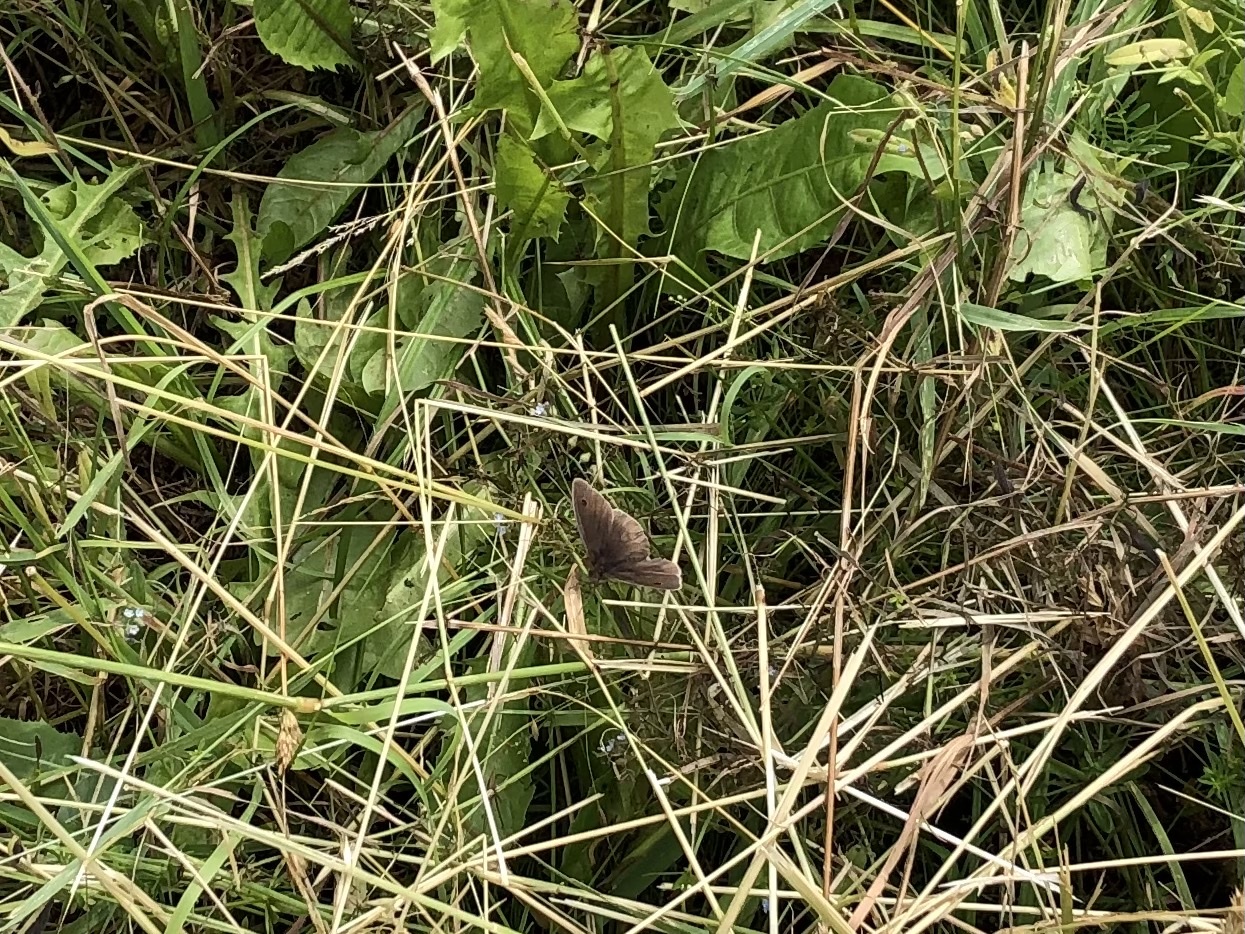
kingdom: Animalia
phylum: Arthropoda
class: Insecta
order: Lepidoptera
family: Nymphalidae
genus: Maniola
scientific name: Maniola jurtina
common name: Meadow brown
